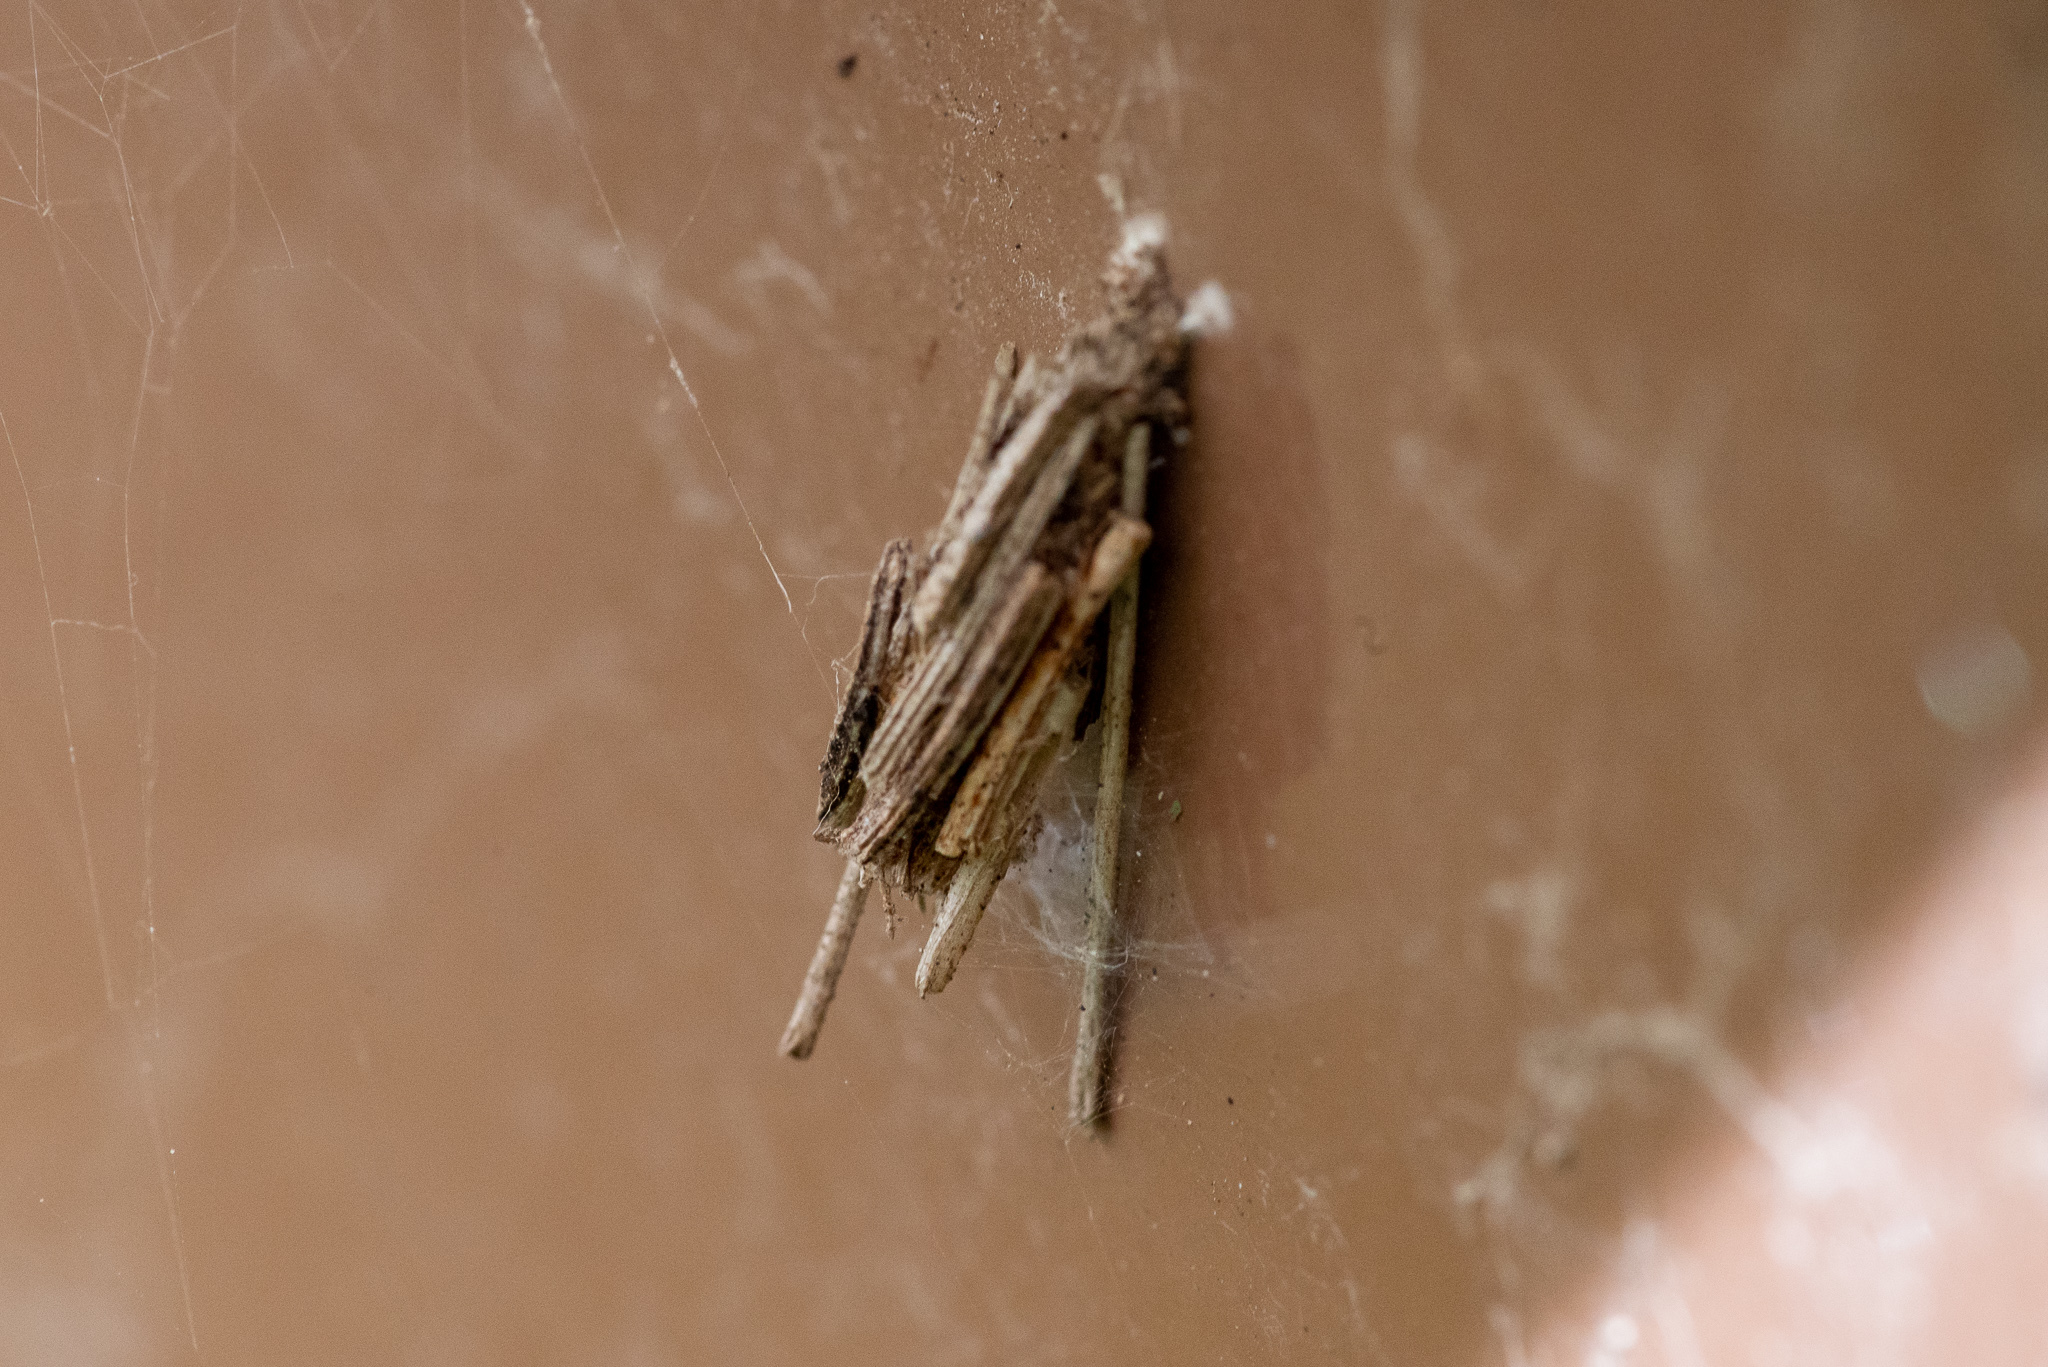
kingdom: Animalia
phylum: Arthropoda
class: Insecta
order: Lepidoptera
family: Psychidae
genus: Psyche
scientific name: Psyche casta
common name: Common sweep
